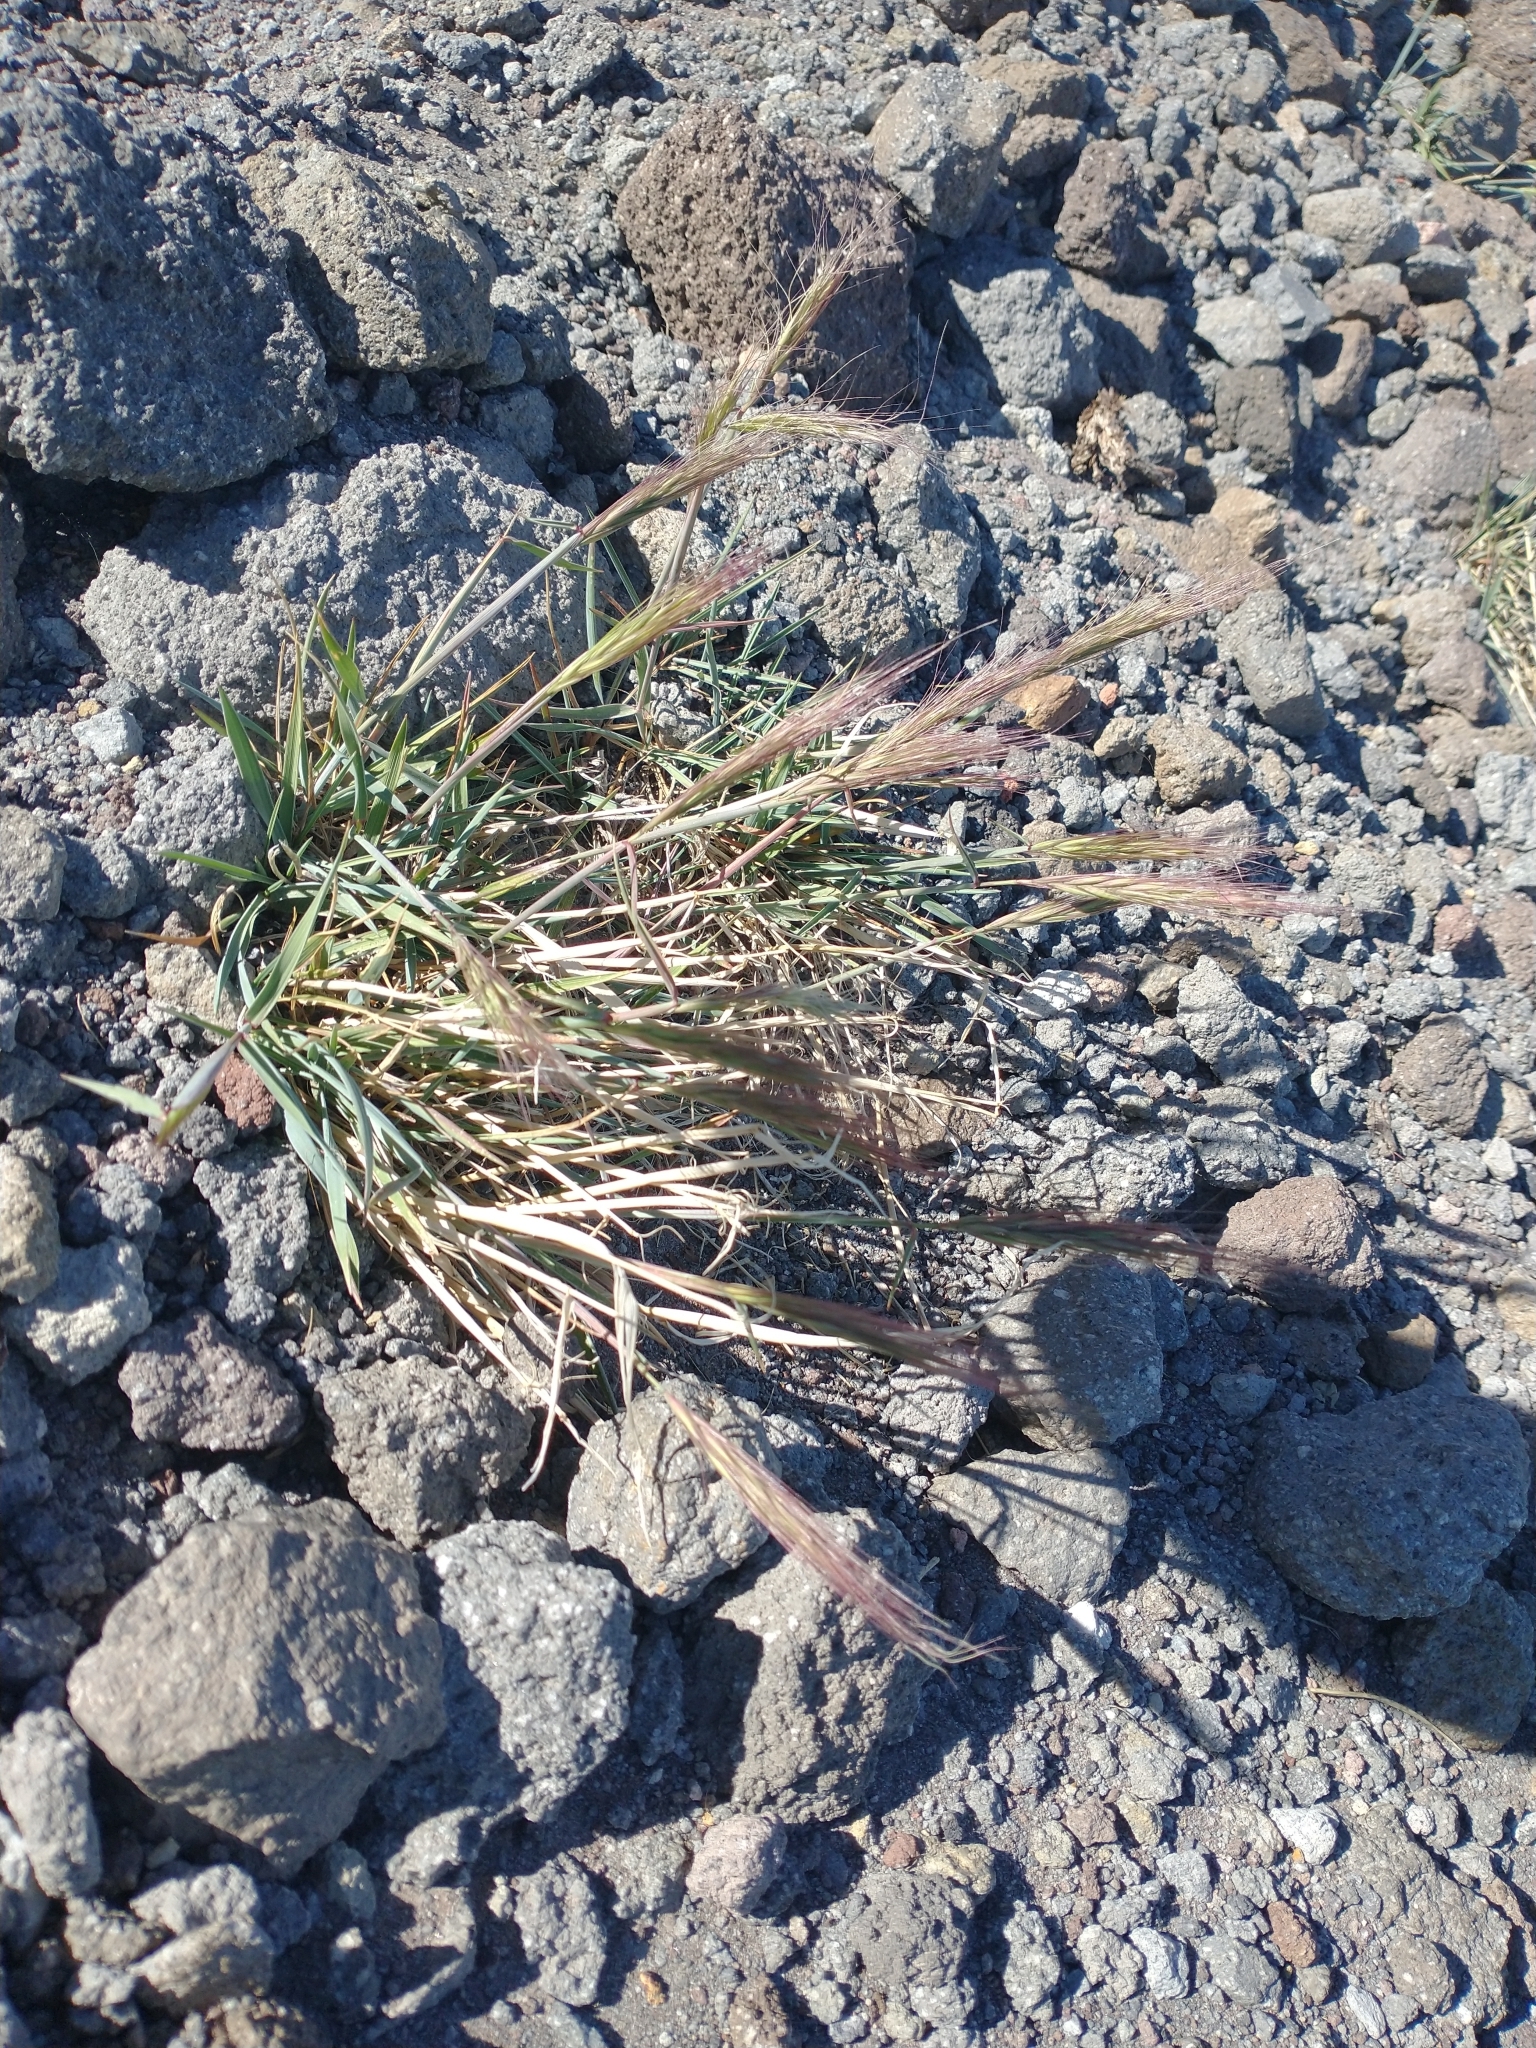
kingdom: Plantae
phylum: Tracheophyta
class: Liliopsida
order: Poales
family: Poaceae
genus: Elymus
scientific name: Elymus elymoides
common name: Bottlebrush squirreltail
